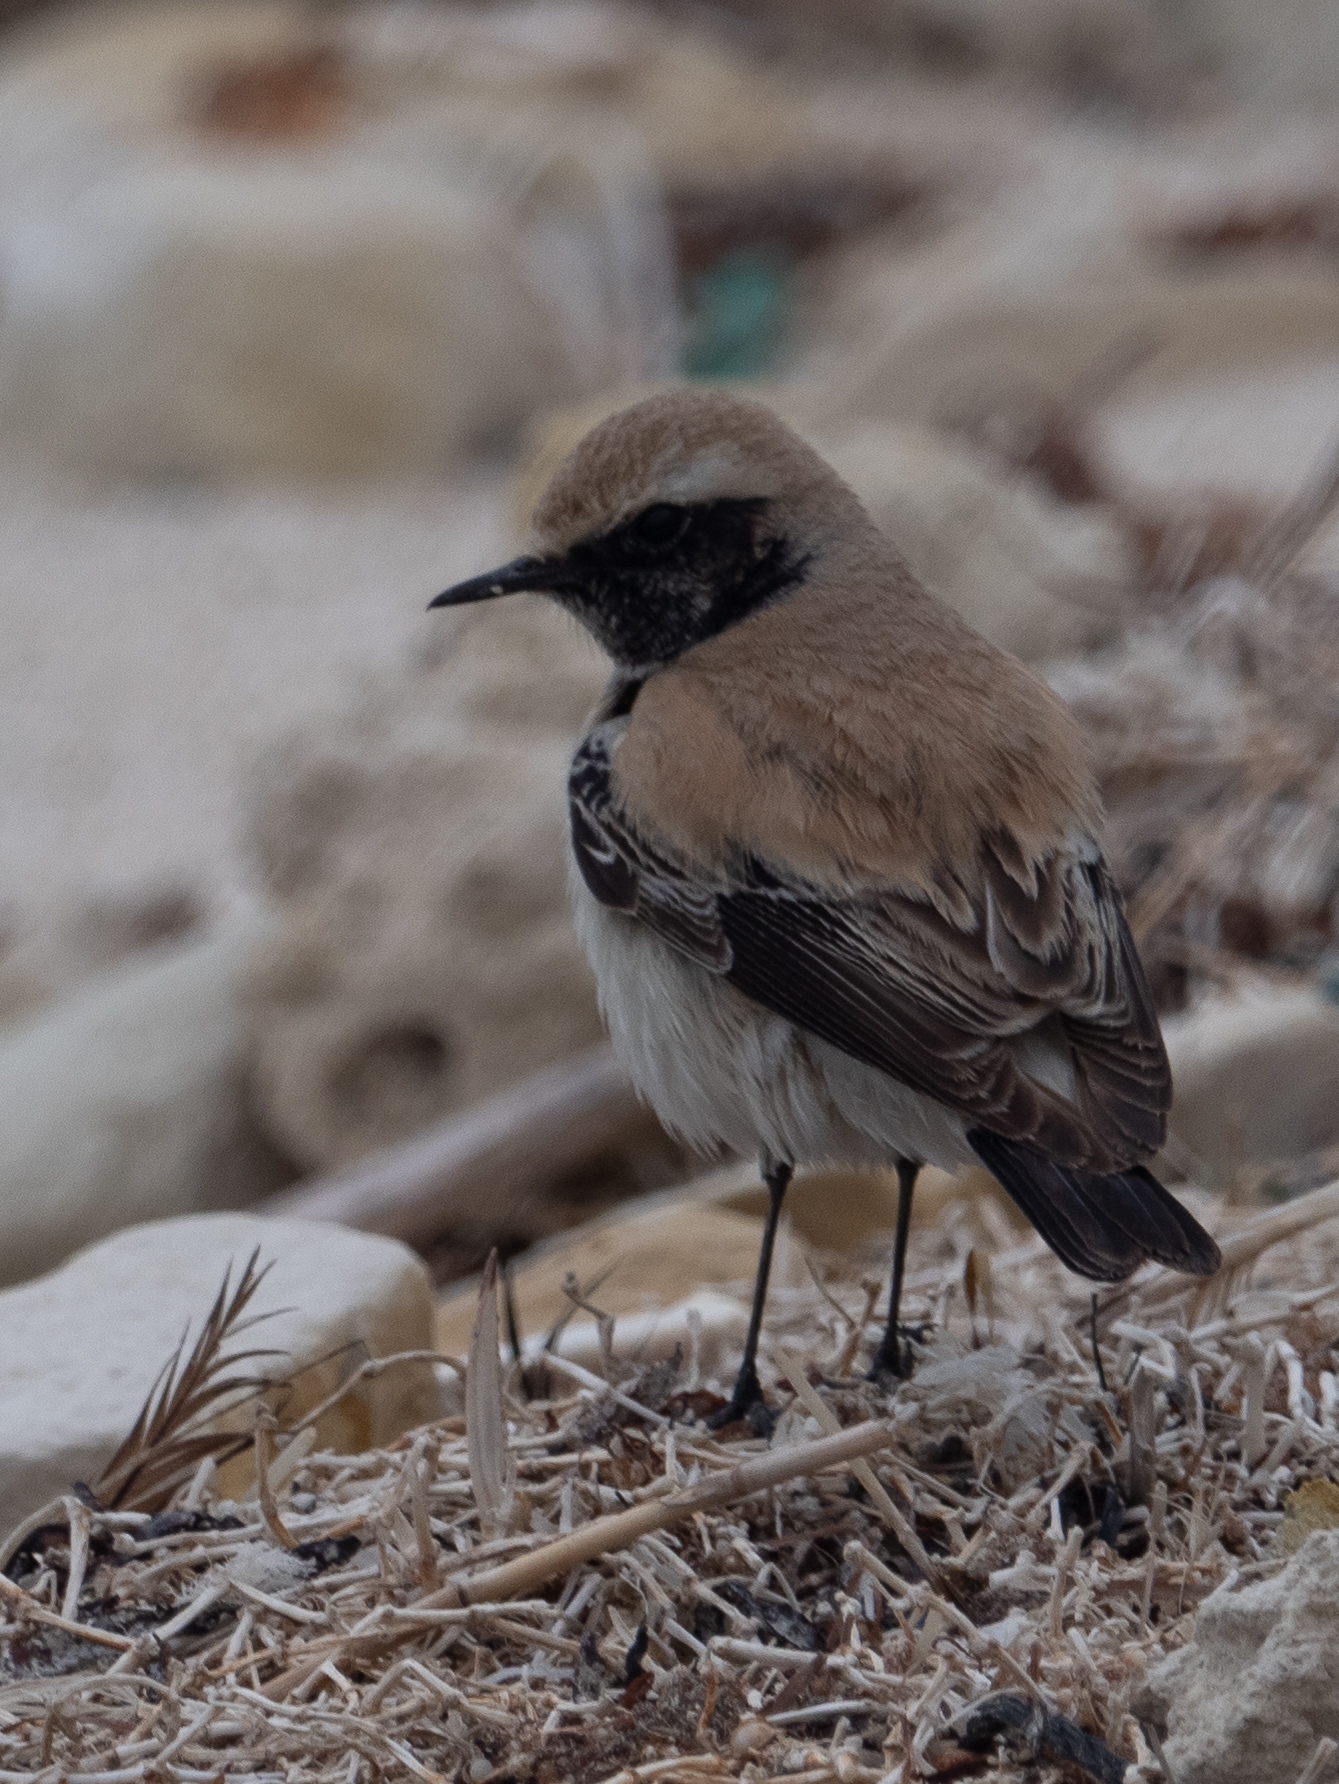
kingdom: Animalia
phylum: Chordata
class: Aves
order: Passeriformes
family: Muscicapidae
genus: Oenanthe
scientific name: Oenanthe deserti
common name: Desert wheatear
